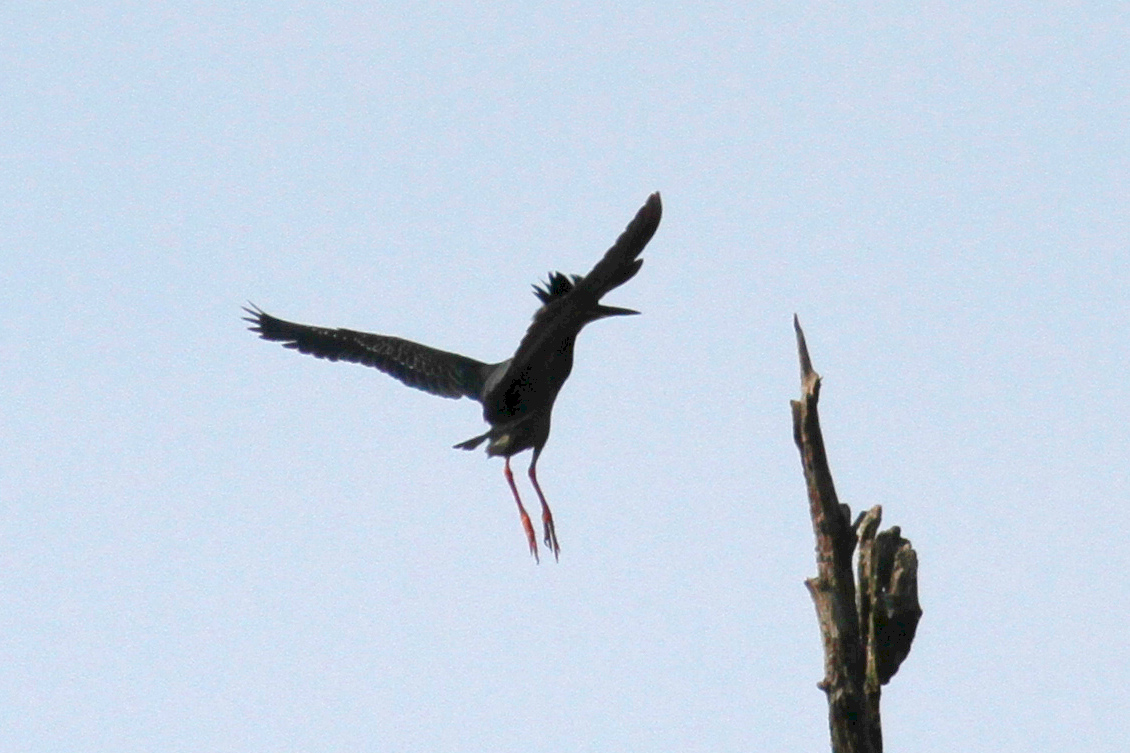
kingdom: Animalia
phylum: Chordata
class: Aves
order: Pelecaniformes
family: Ardeidae
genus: Butorides
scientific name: Butorides virescens
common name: Green heron
